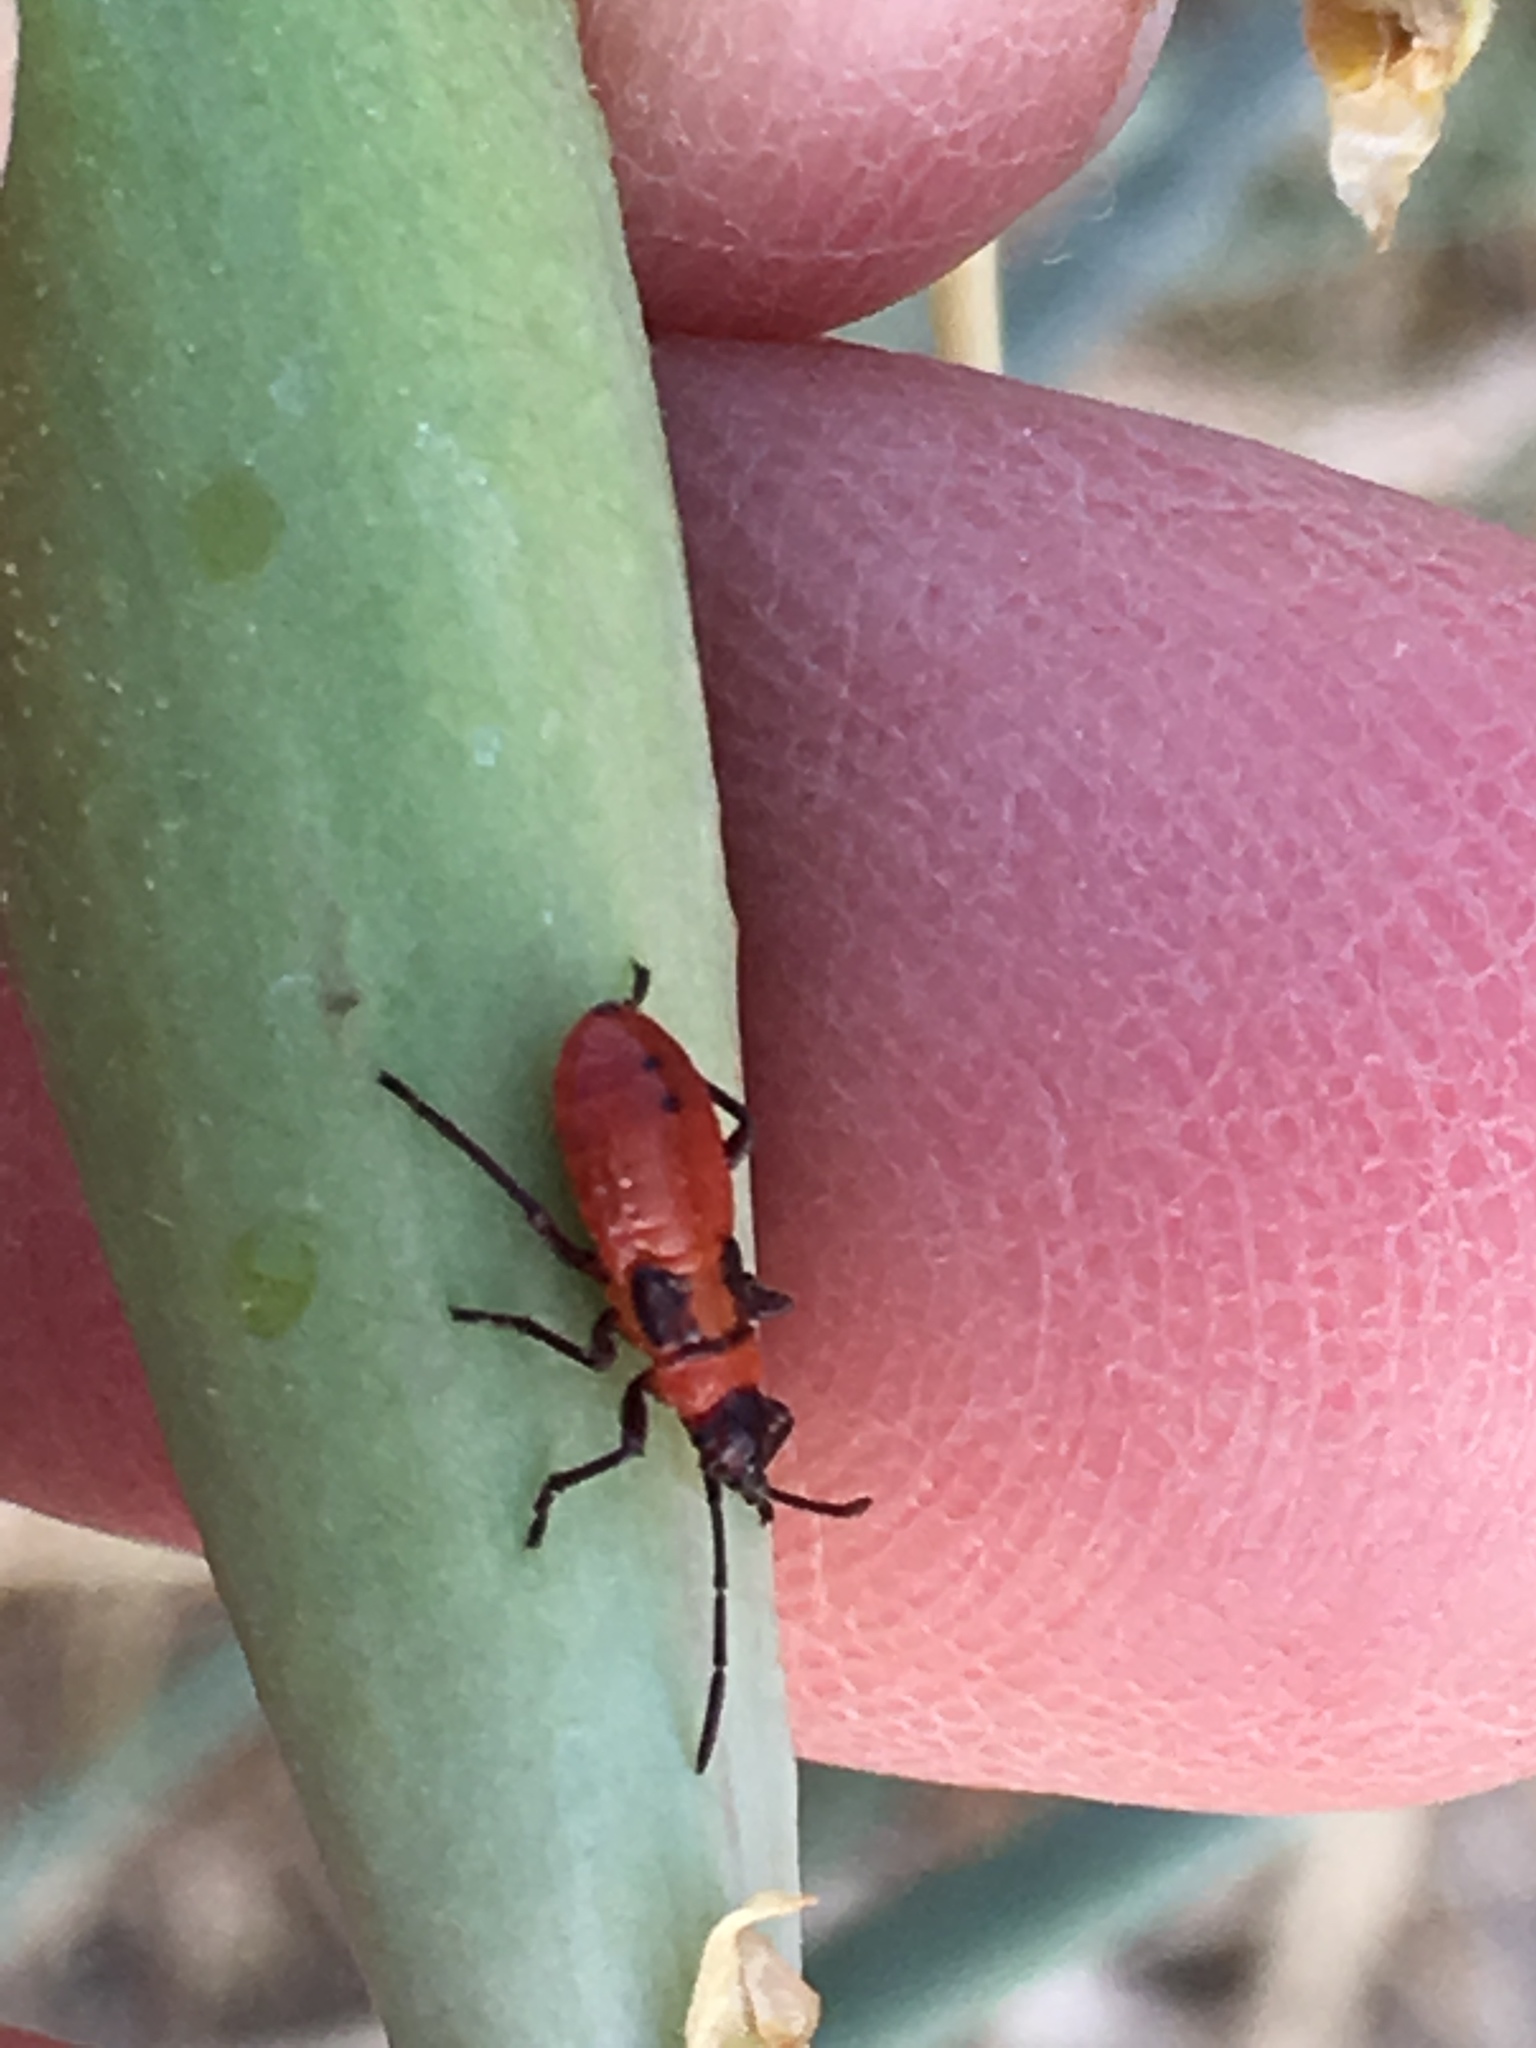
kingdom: Animalia
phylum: Arthropoda
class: Insecta
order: Hemiptera
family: Lygaeidae
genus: Oncopeltus
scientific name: Oncopeltus fasciatus
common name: Large milkweed bug
